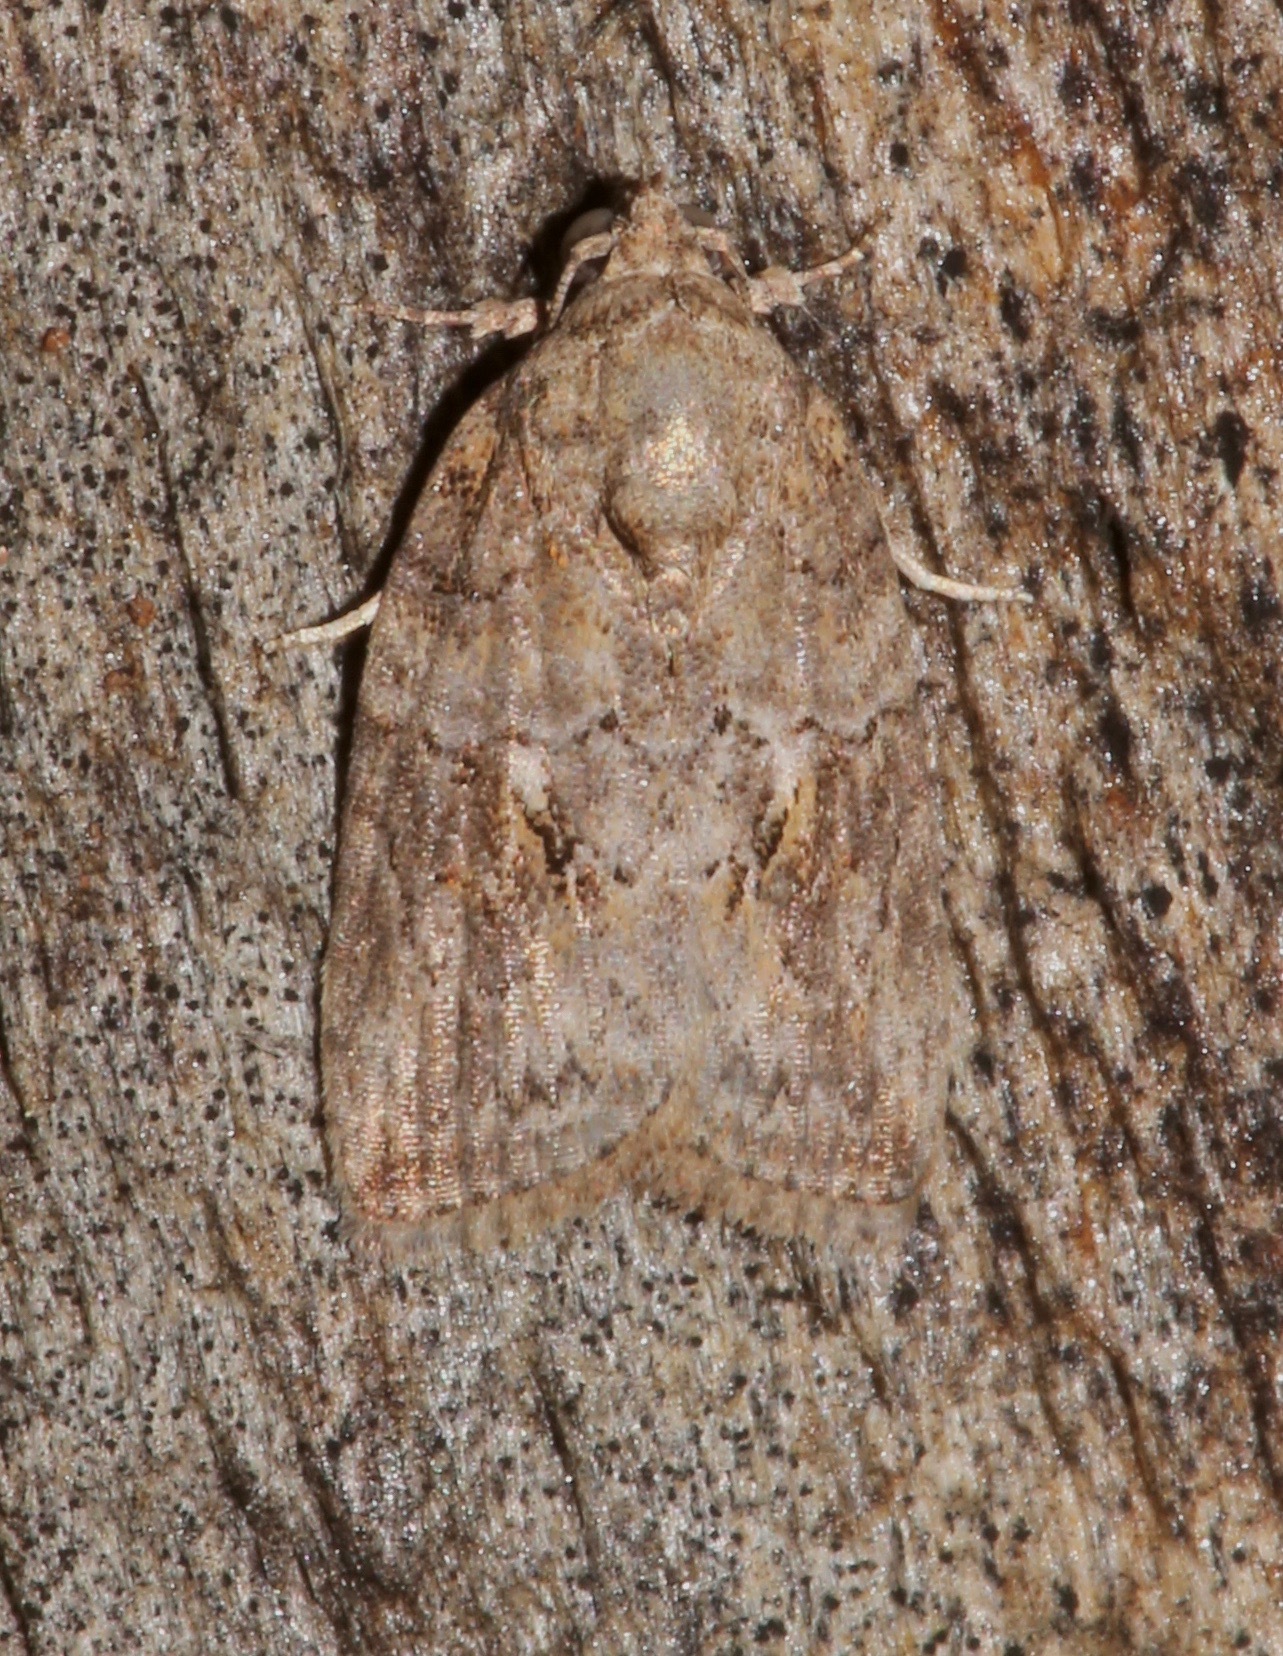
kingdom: Animalia
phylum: Arthropoda
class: Insecta
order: Lepidoptera
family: Nolidae
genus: Garella
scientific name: Garella nilotica
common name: Black-olive caterpillar moth
